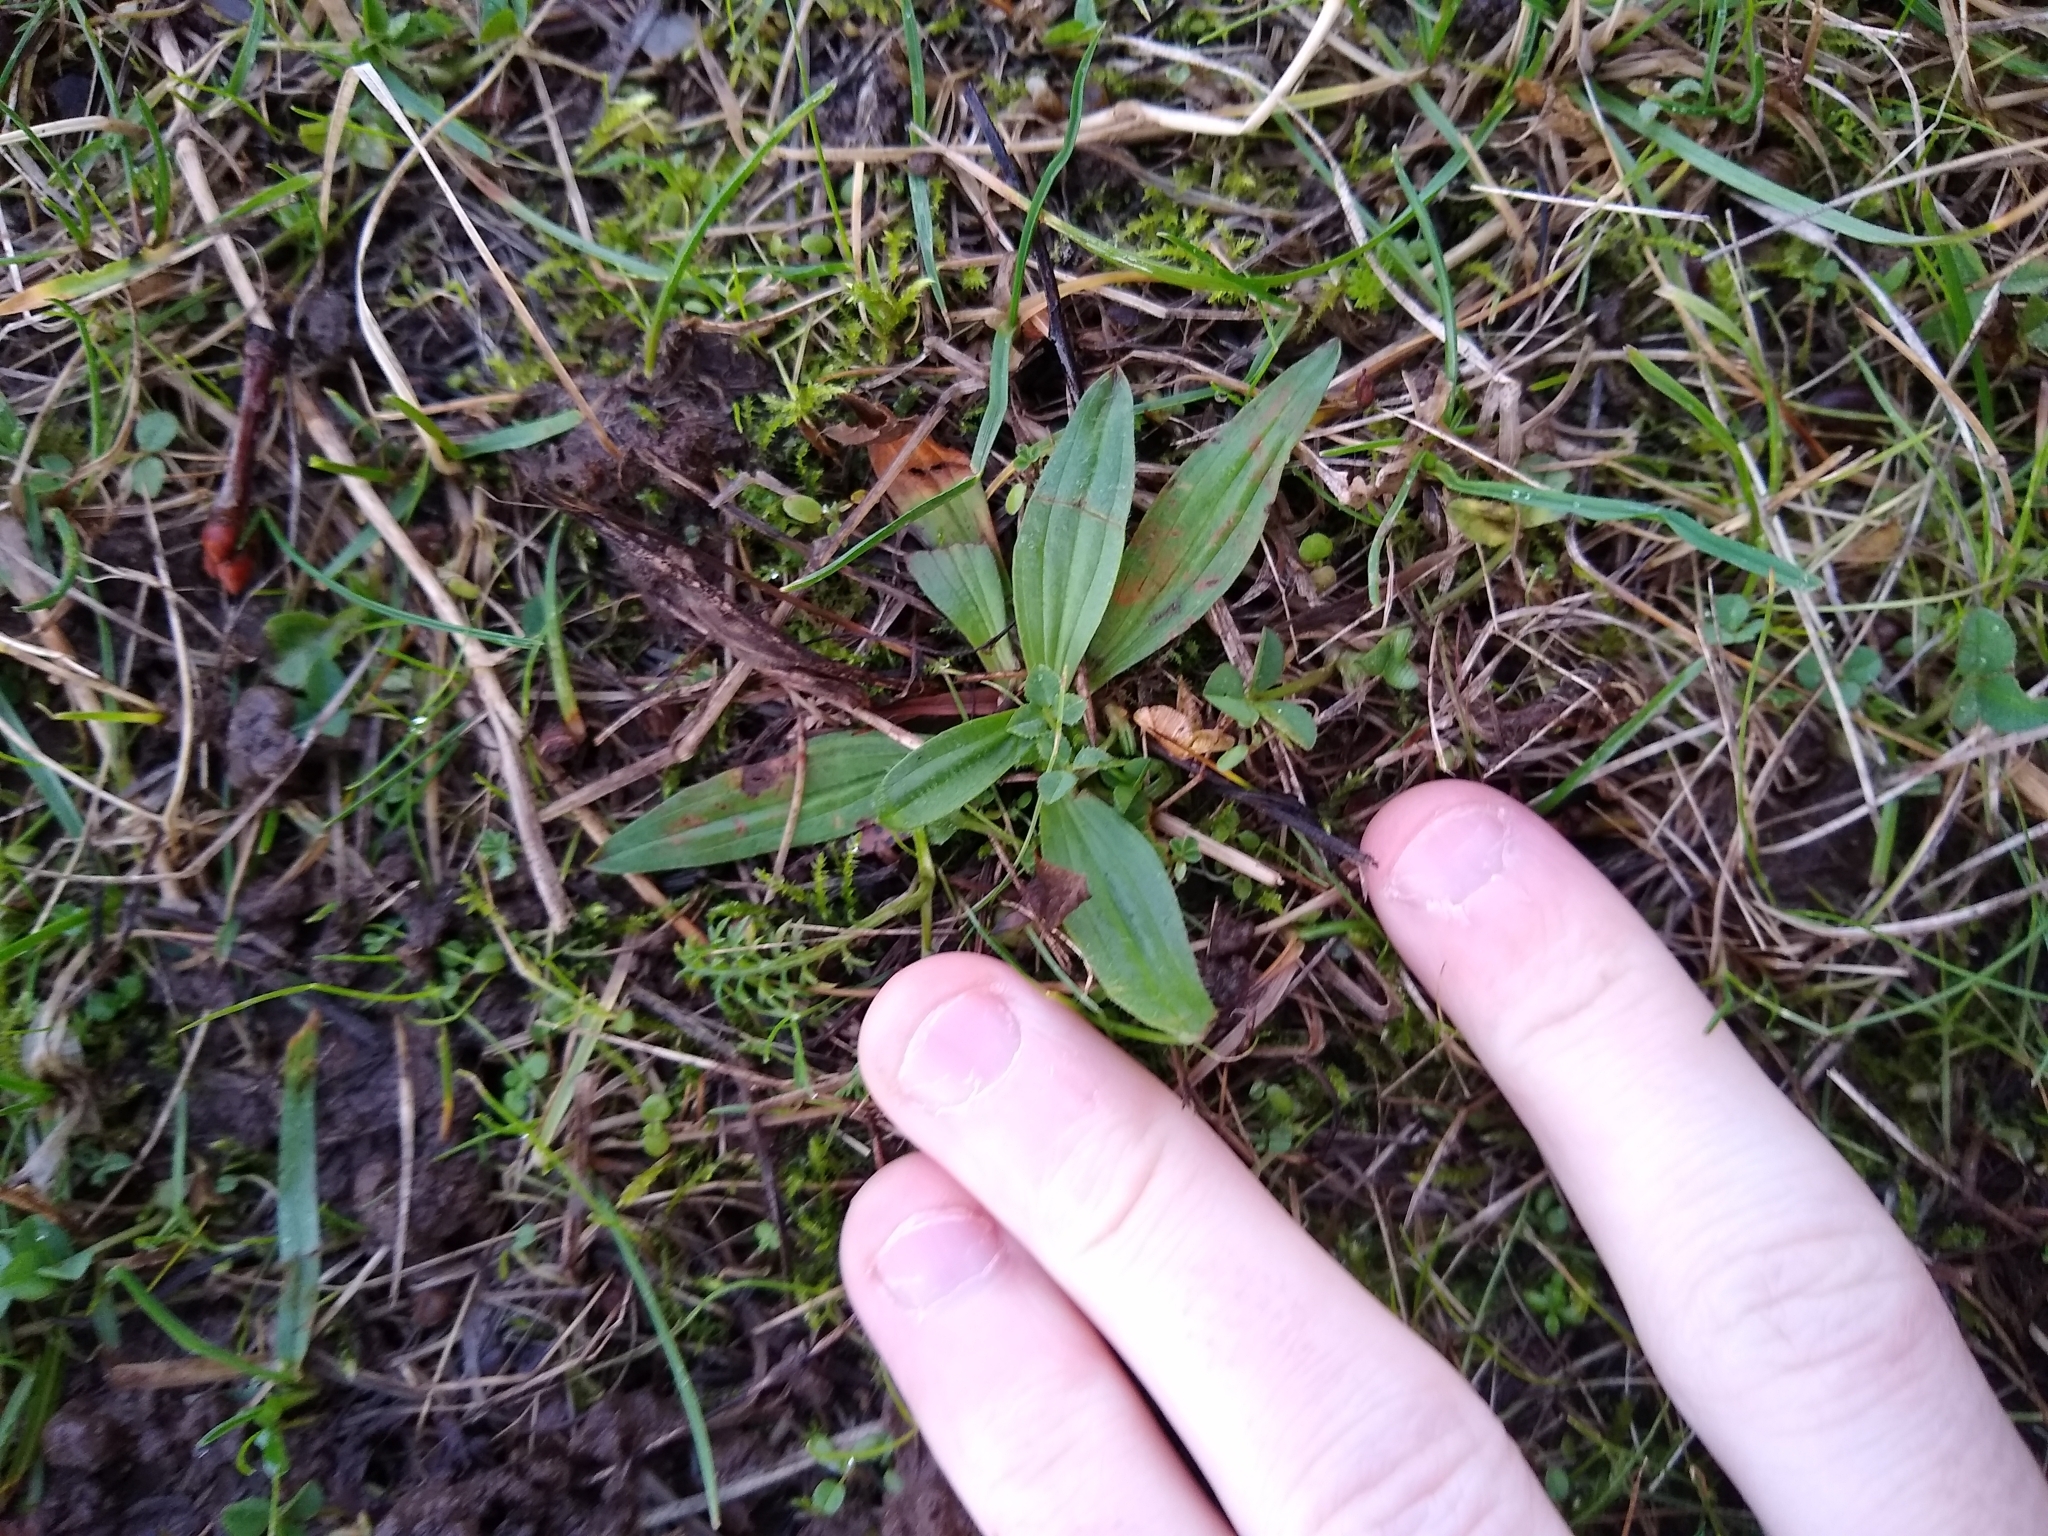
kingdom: Plantae
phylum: Tracheophyta
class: Magnoliopsida
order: Lamiales
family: Plantaginaceae
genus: Plantago
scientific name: Plantago lanceolata
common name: Ribwort plantain
